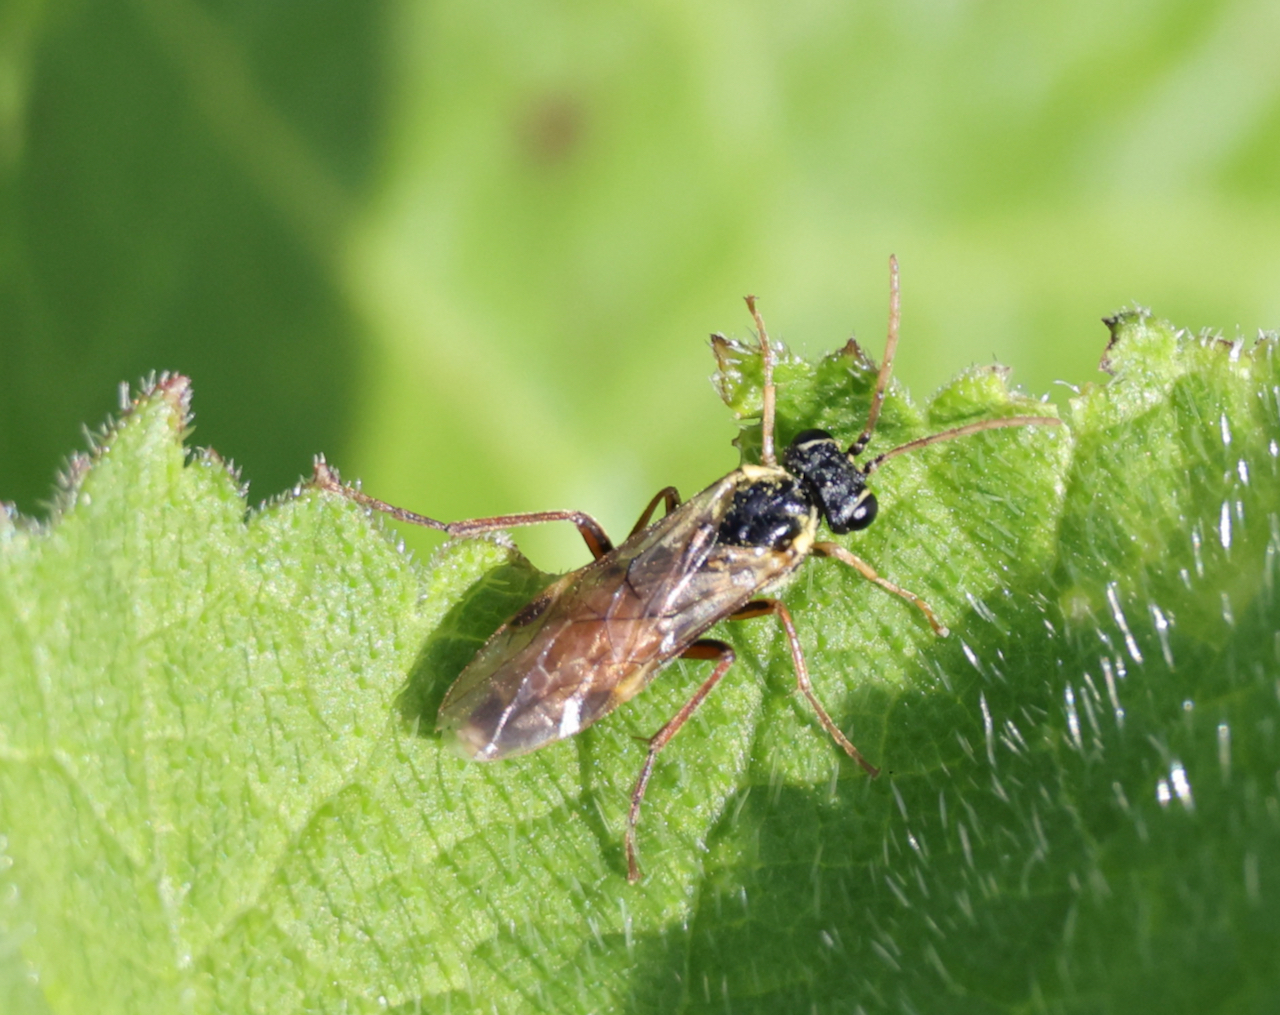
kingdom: Animalia
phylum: Arthropoda
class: Insecta
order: Hymenoptera
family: Tenthredinidae
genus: Aglaostigma
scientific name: Aglaostigma aucupariae
